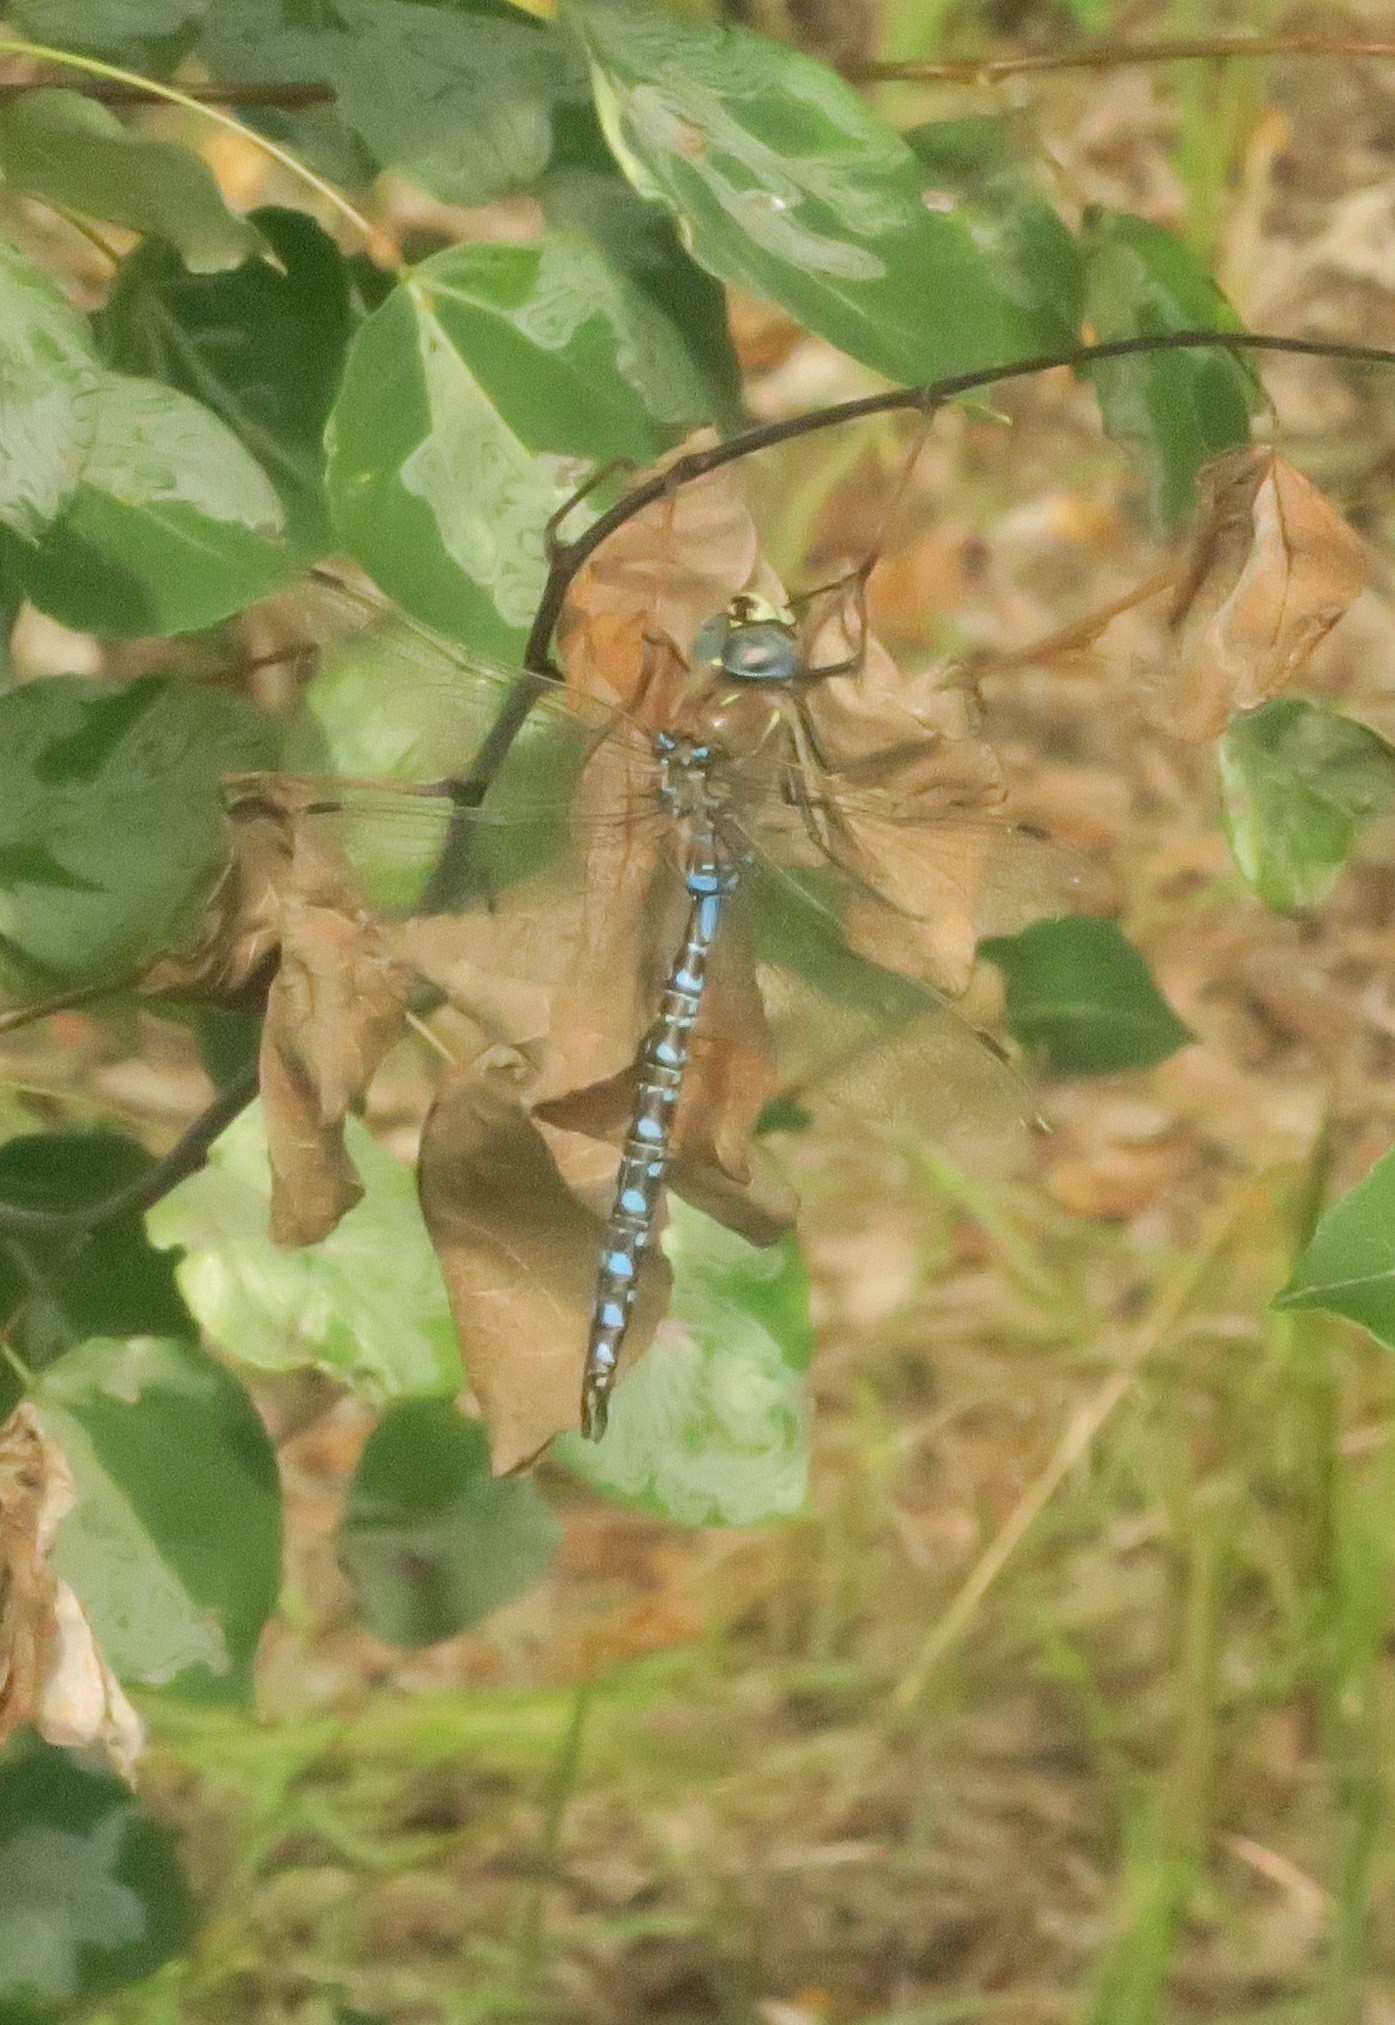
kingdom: Animalia
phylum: Arthropoda
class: Insecta
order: Odonata
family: Aeshnidae
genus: Aeshna
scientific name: Aeshna interrupta
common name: Variable darner
